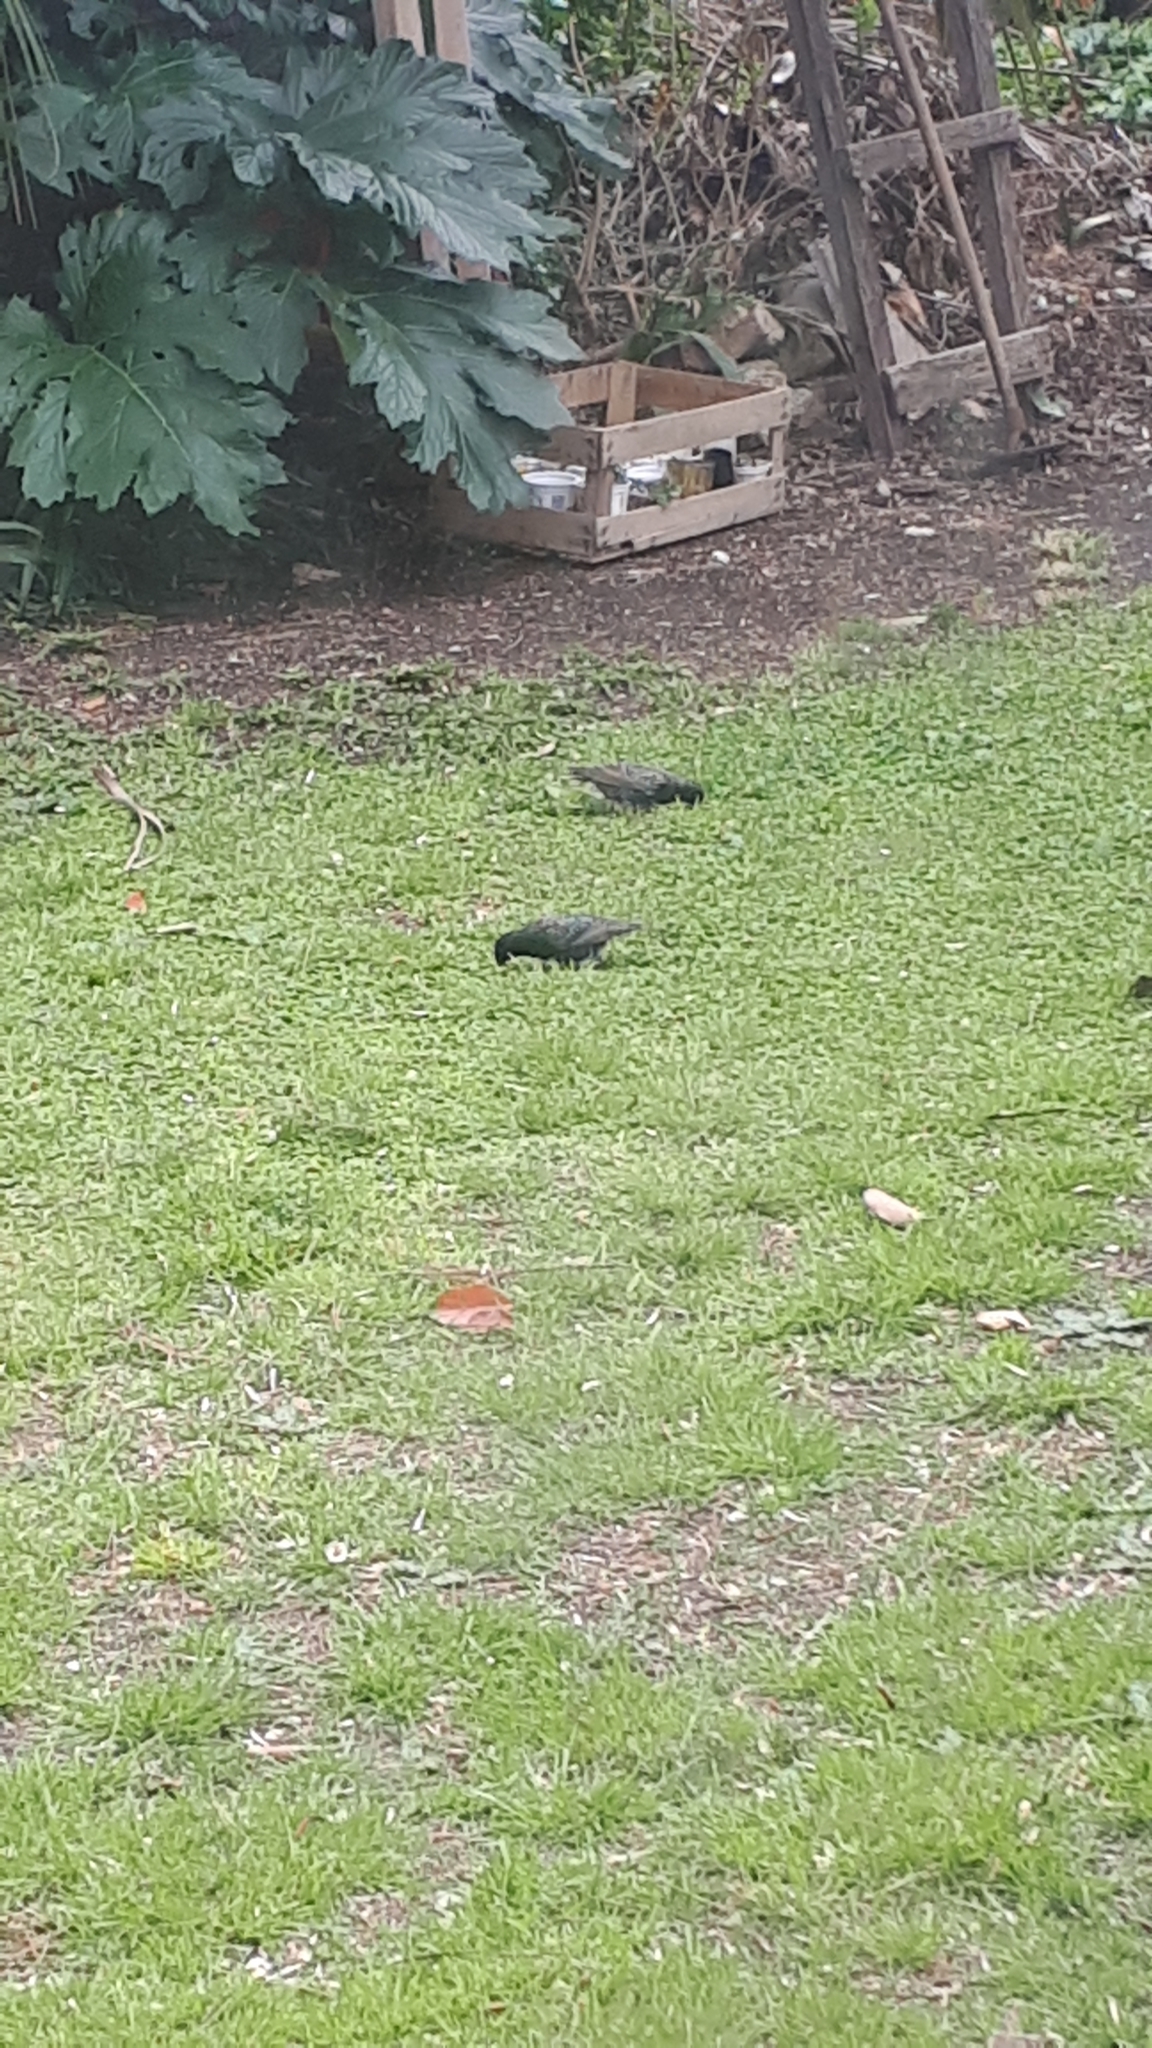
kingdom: Animalia
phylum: Chordata
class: Aves
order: Passeriformes
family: Sturnidae
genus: Sturnus
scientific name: Sturnus vulgaris
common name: Common starling
